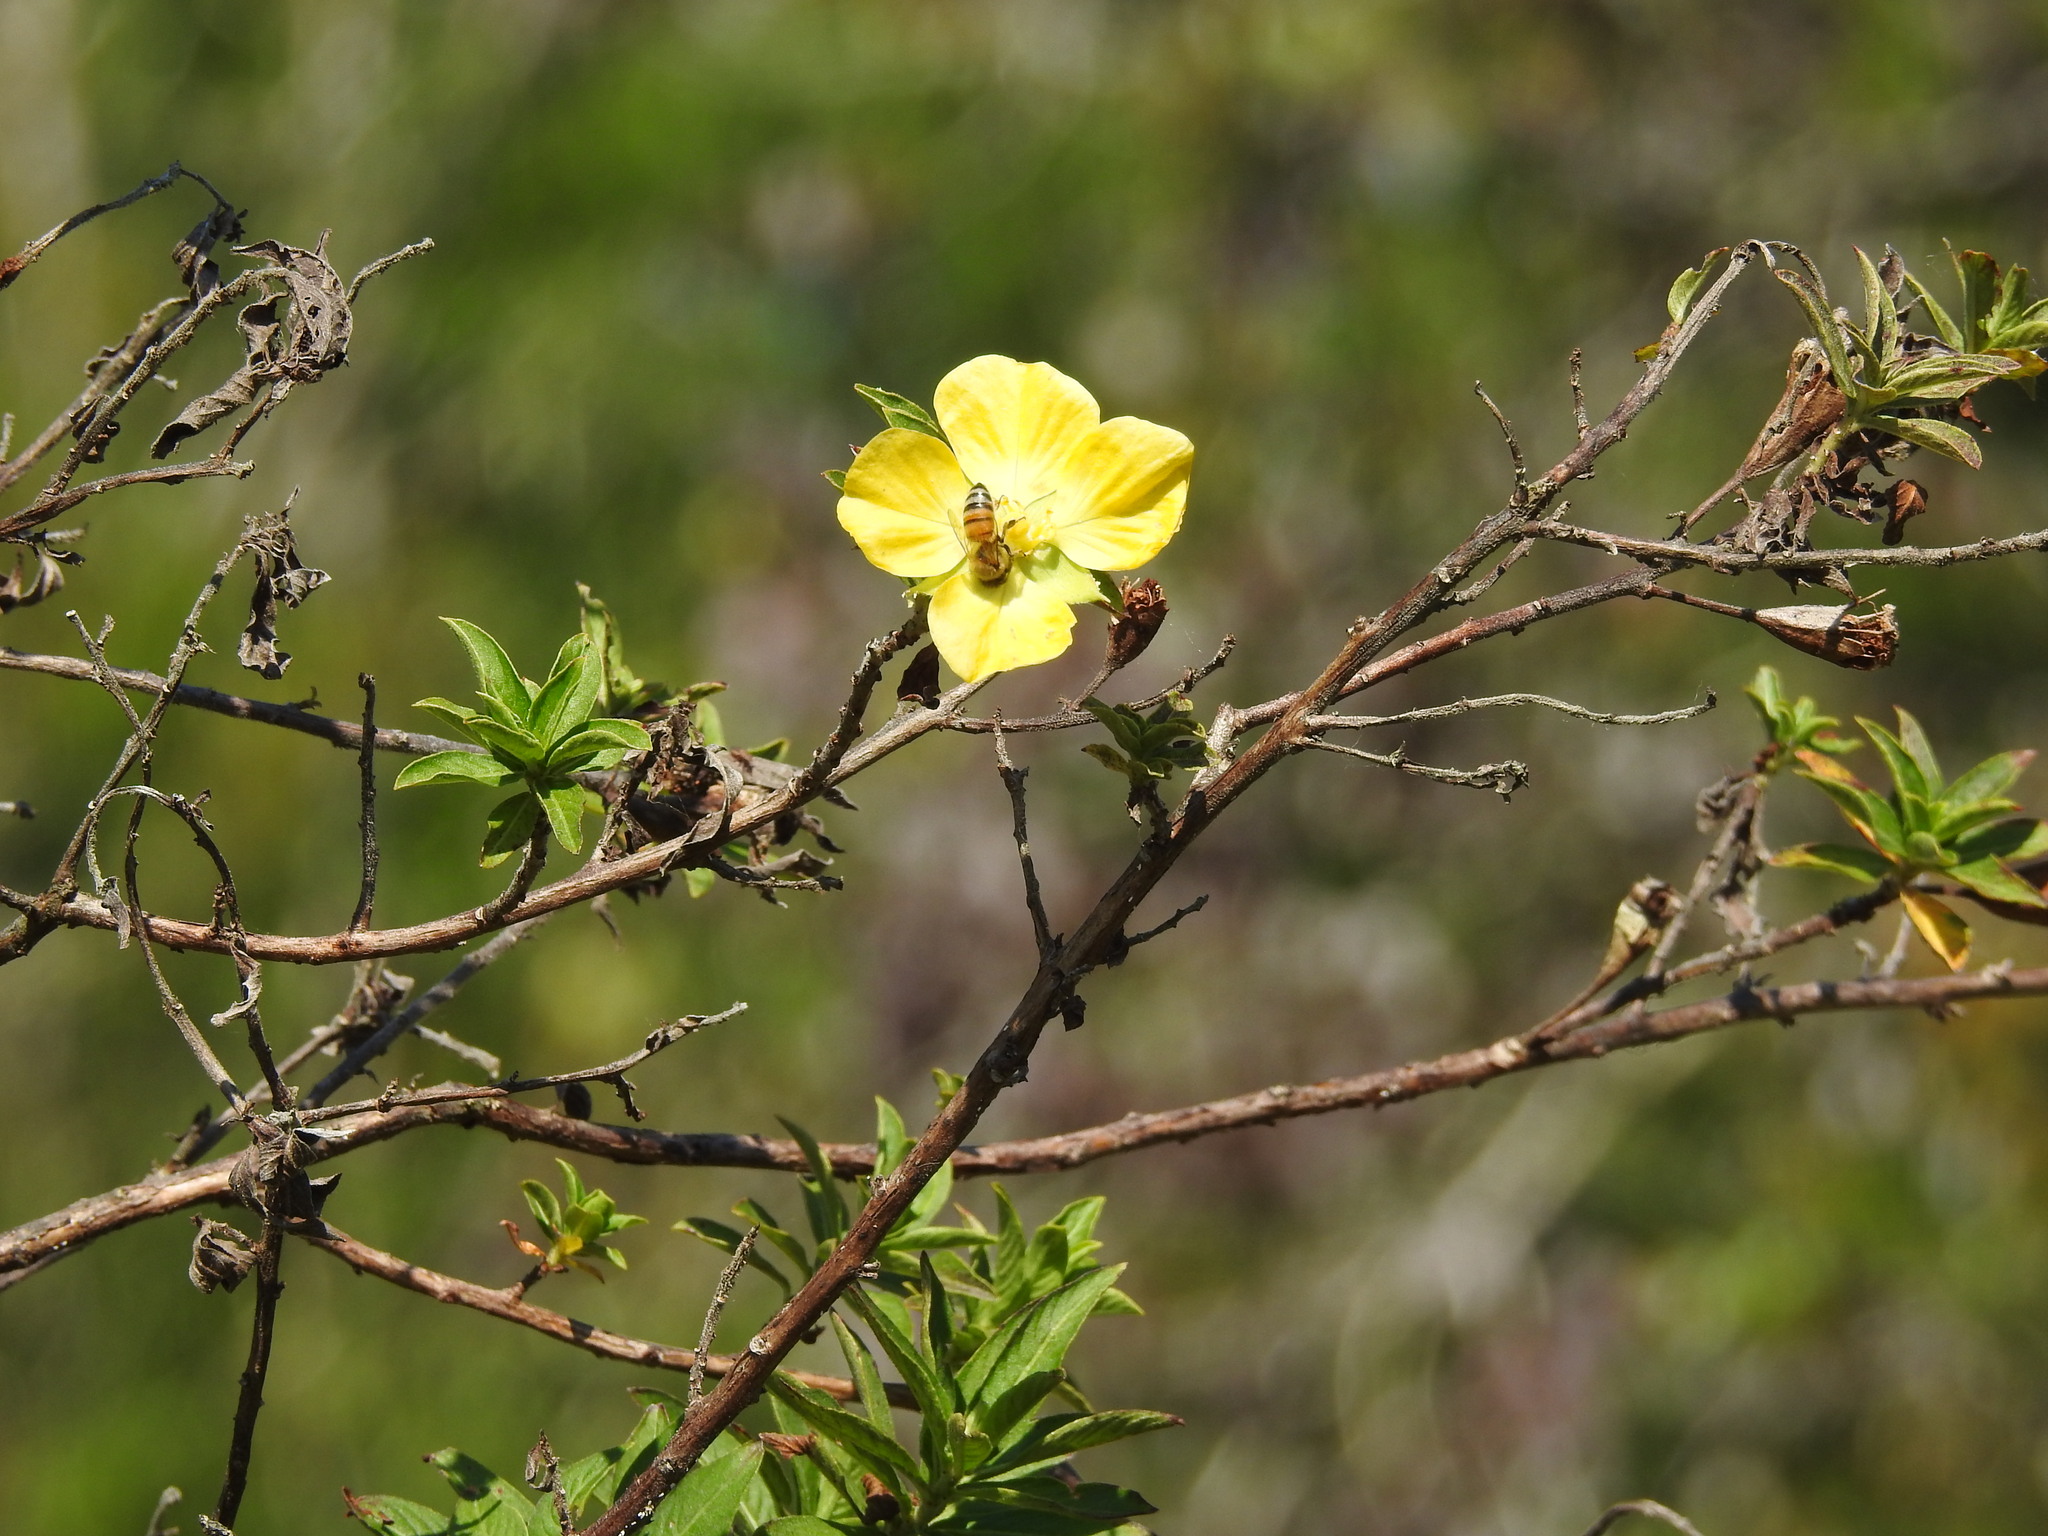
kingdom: Animalia
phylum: Arthropoda
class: Insecta
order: Hymenoptera
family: Apidae
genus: Apis
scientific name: Apis mellifera
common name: Honey bee
